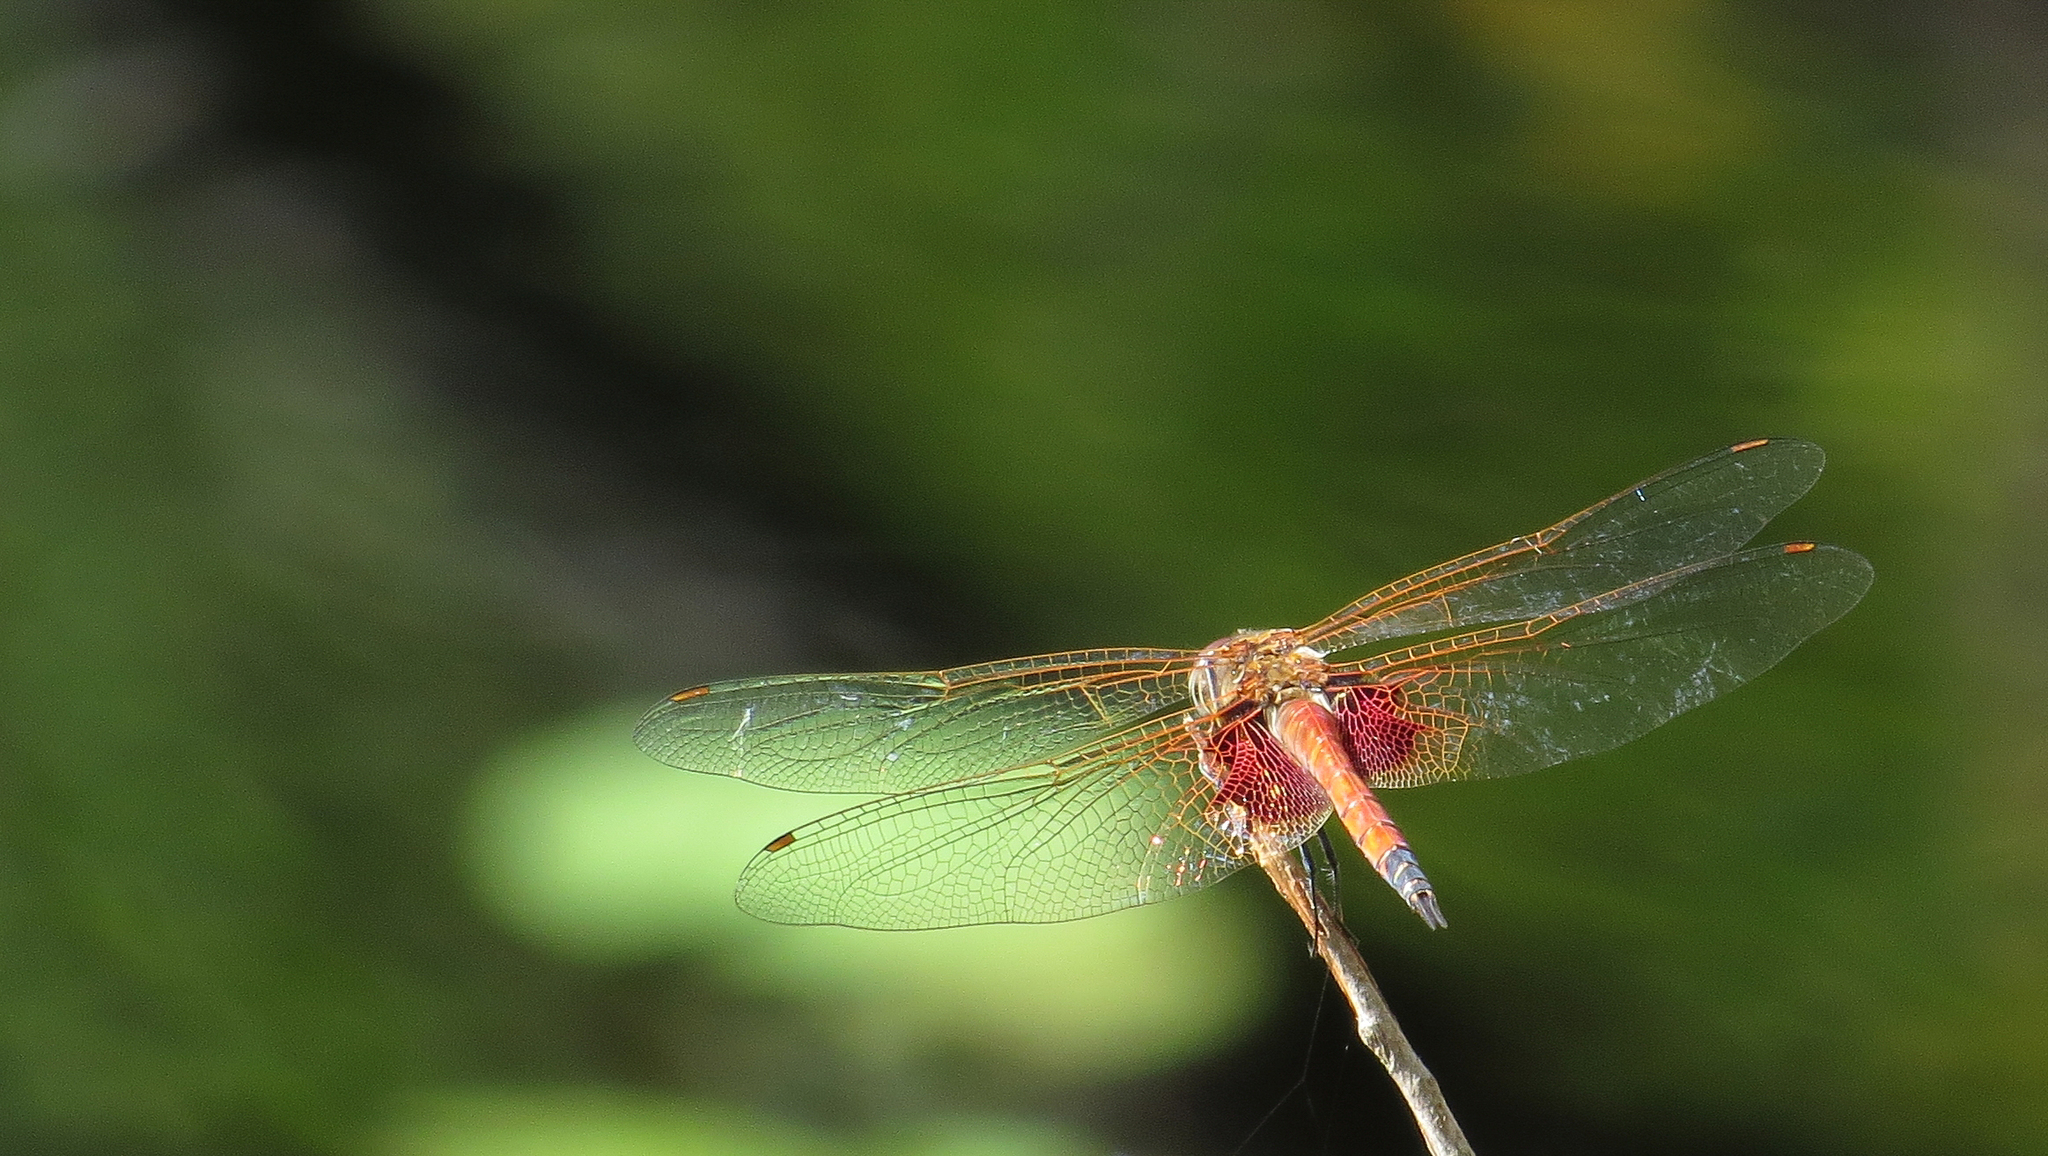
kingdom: Animalia
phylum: Arthropoda
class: Insecta
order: Odonata
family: Libellulidae
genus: Tramea
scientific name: Tramea loewii
